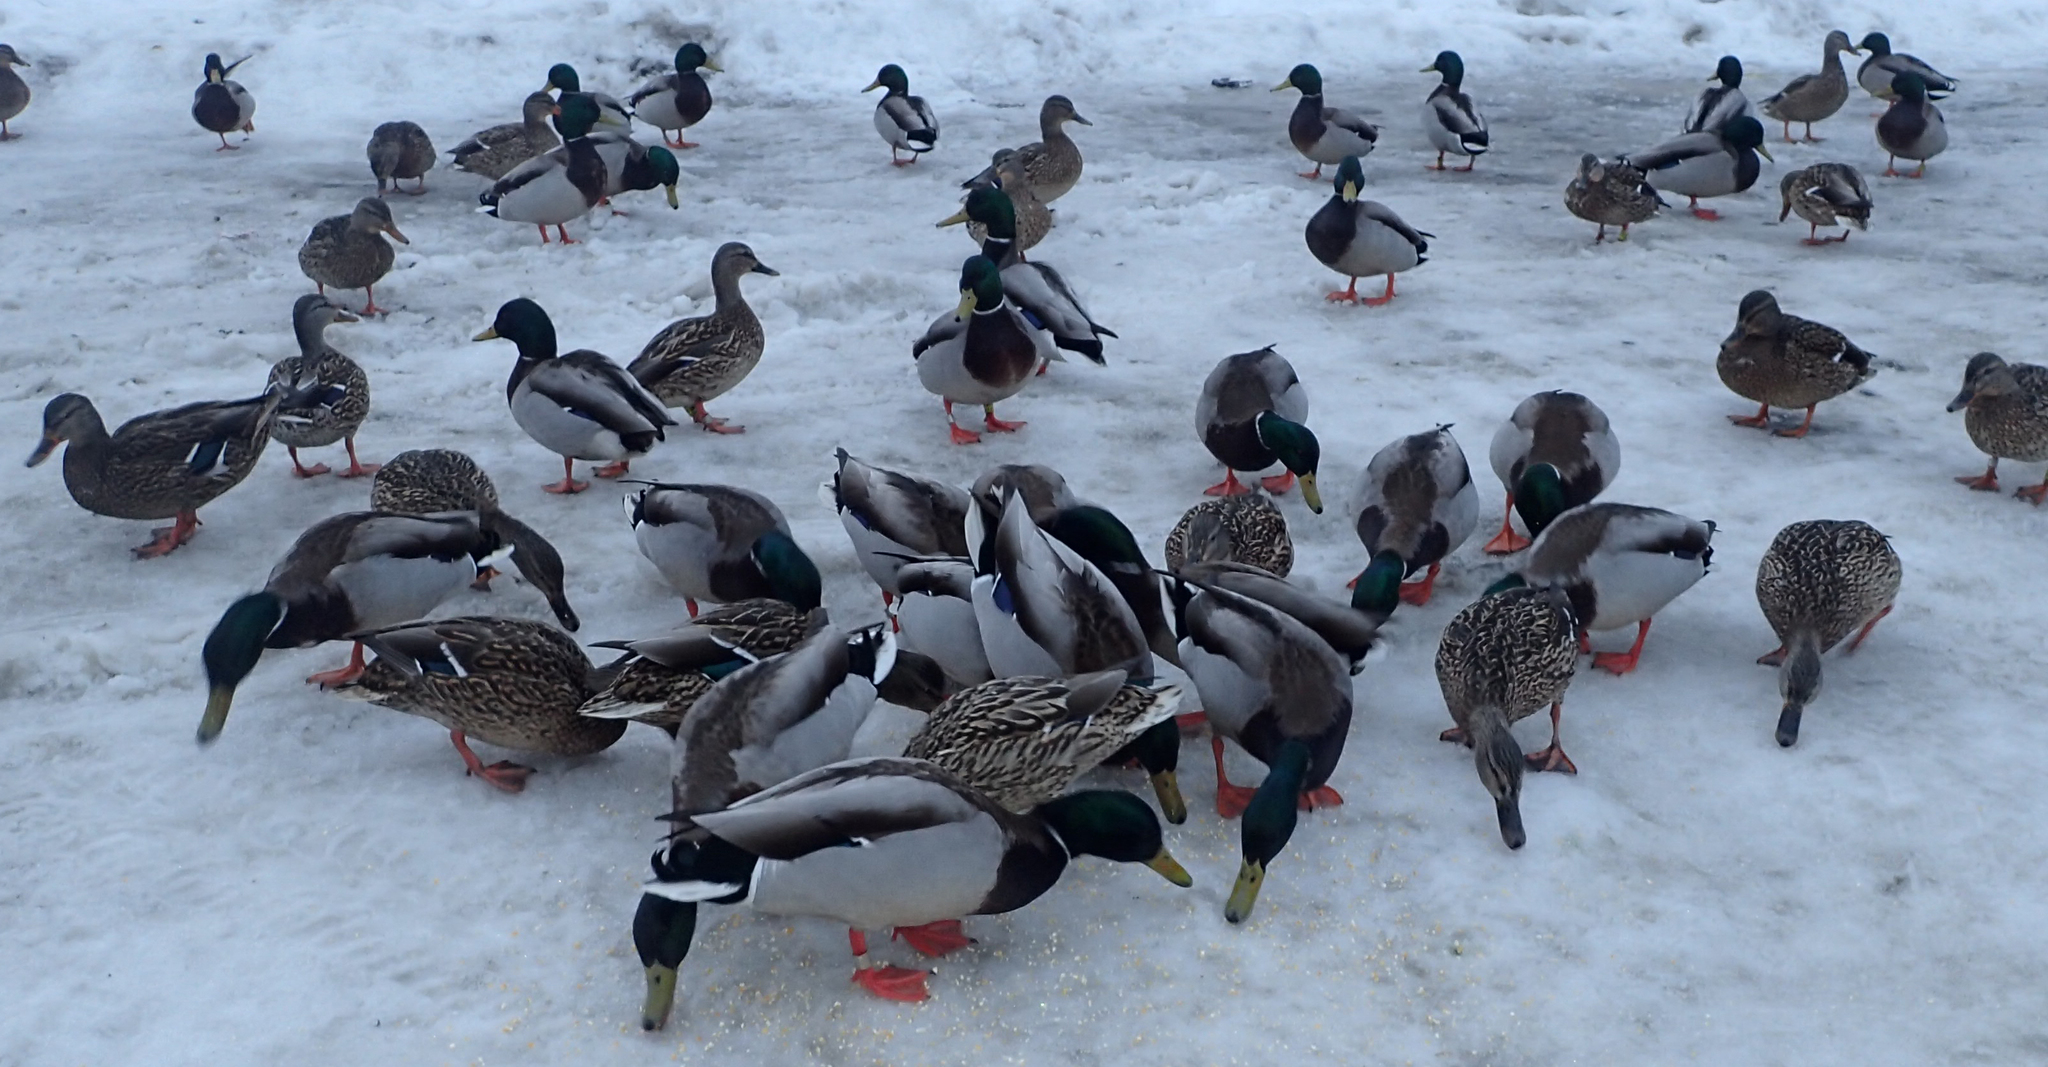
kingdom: Animalia
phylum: Chordata
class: Aves
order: Anseriformes
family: Anatidae
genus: Anas
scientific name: Anas platyrhynchos
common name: Mallard
